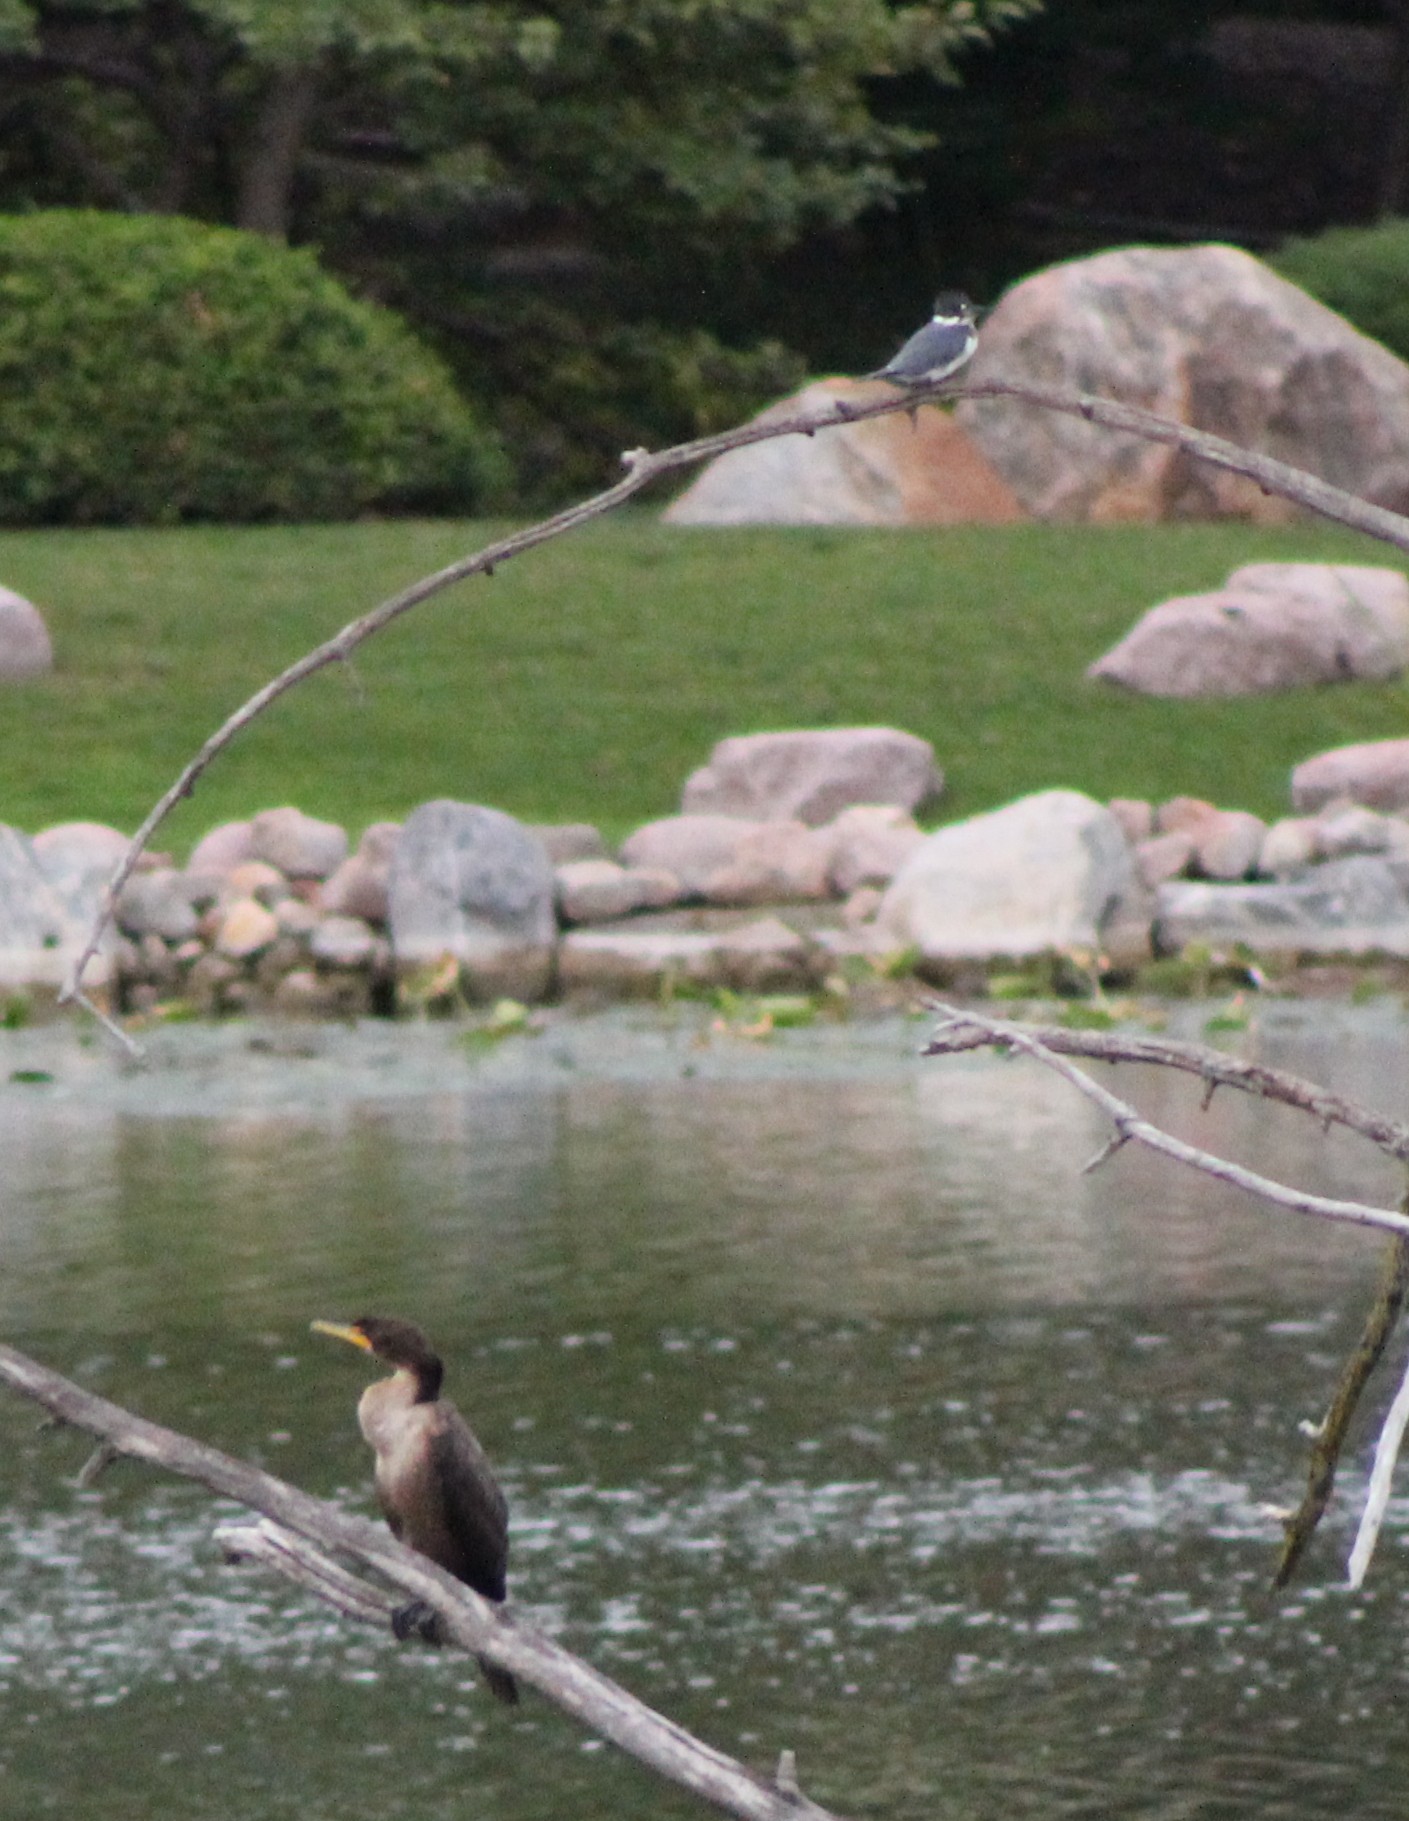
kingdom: Animalia
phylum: Chordata
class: Aves
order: Coraciiformes
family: Alcedinidae
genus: Megaceryle
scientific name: Megaceryle alcyon
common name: Belted kingfisher
